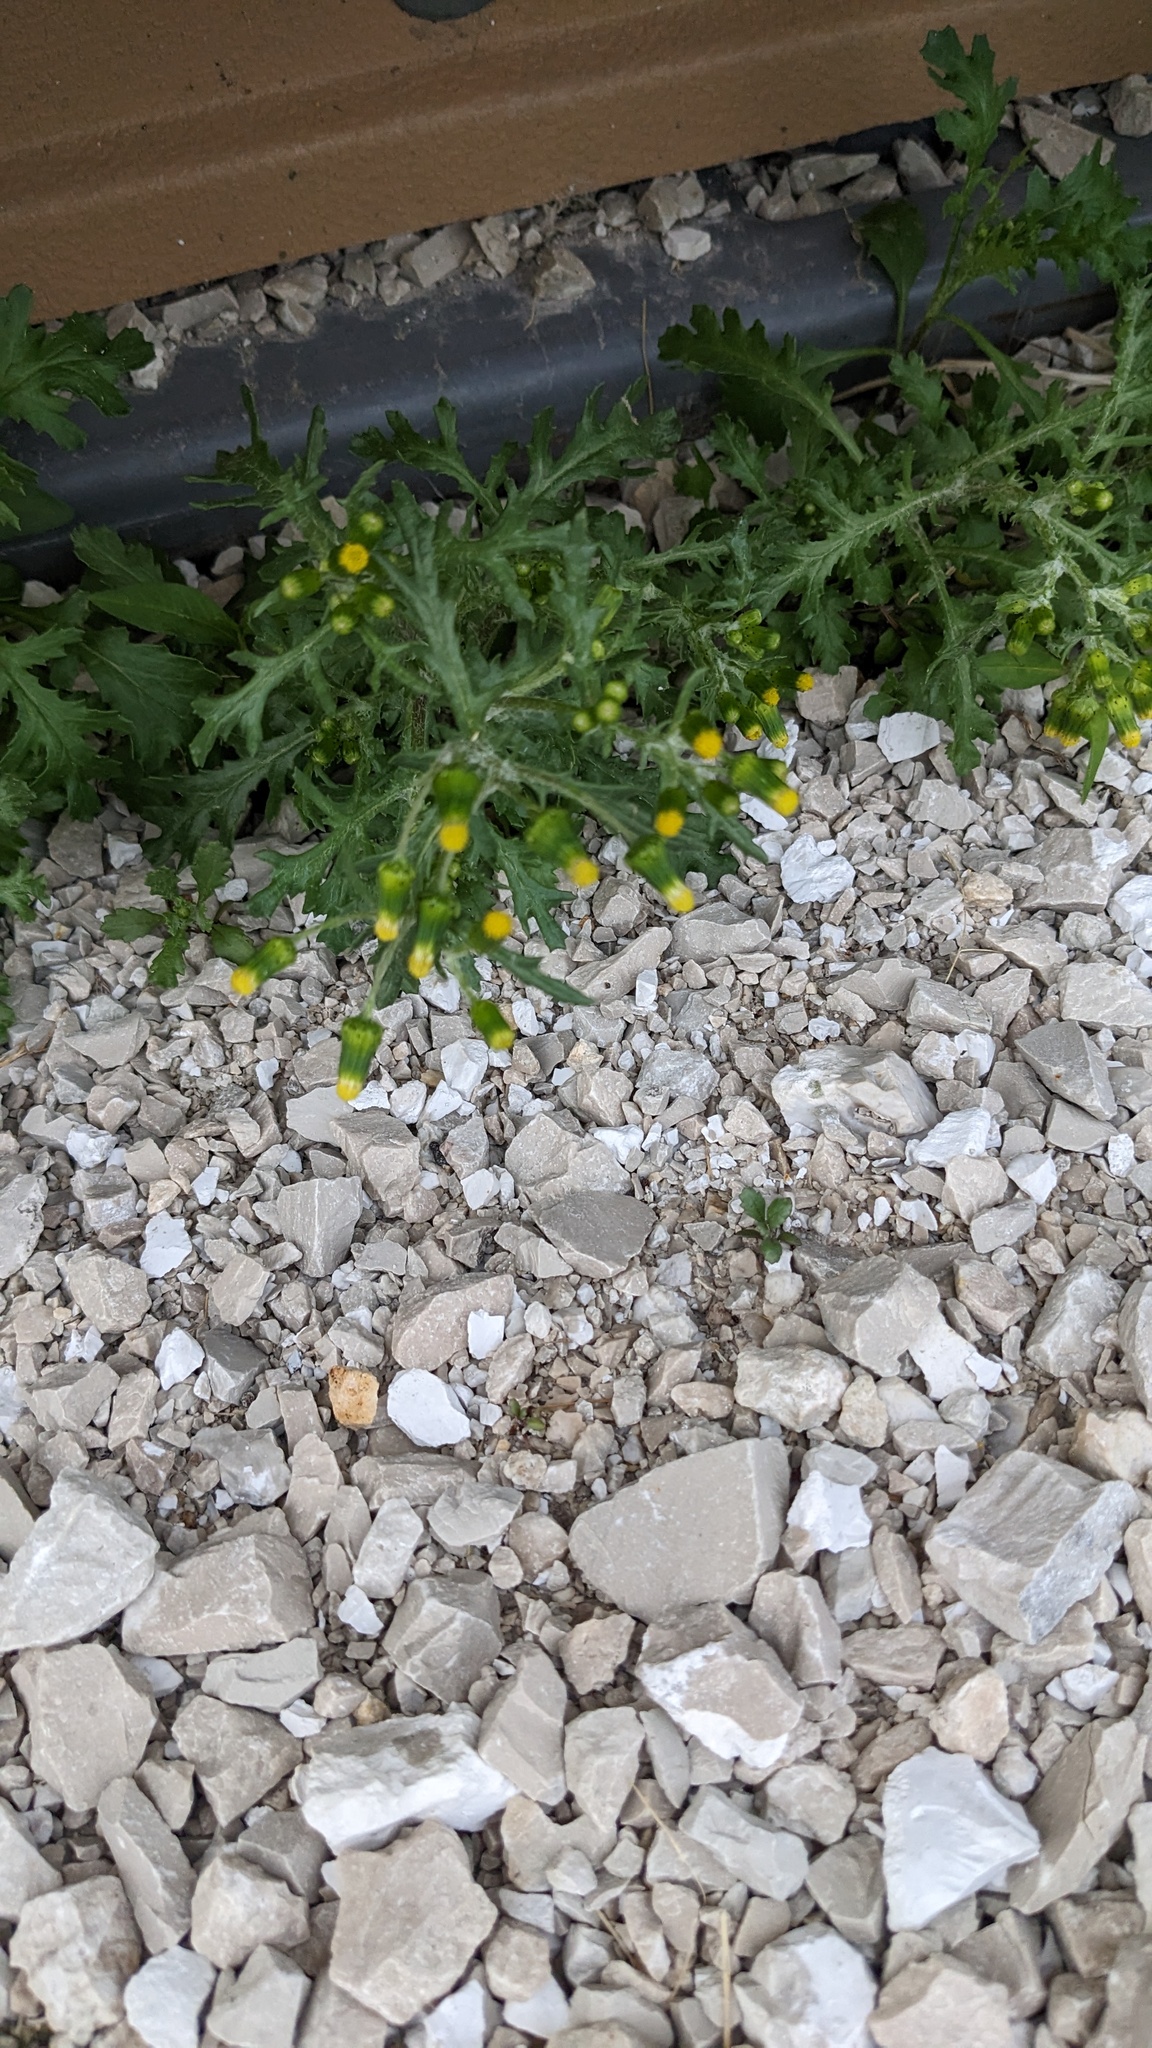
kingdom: Plantae
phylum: Tracheophyta
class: Magnoliopsida
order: Asterales
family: Asteraceae
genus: Senecio
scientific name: Senecio vulgaris
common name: Old-man-in-the-spring
